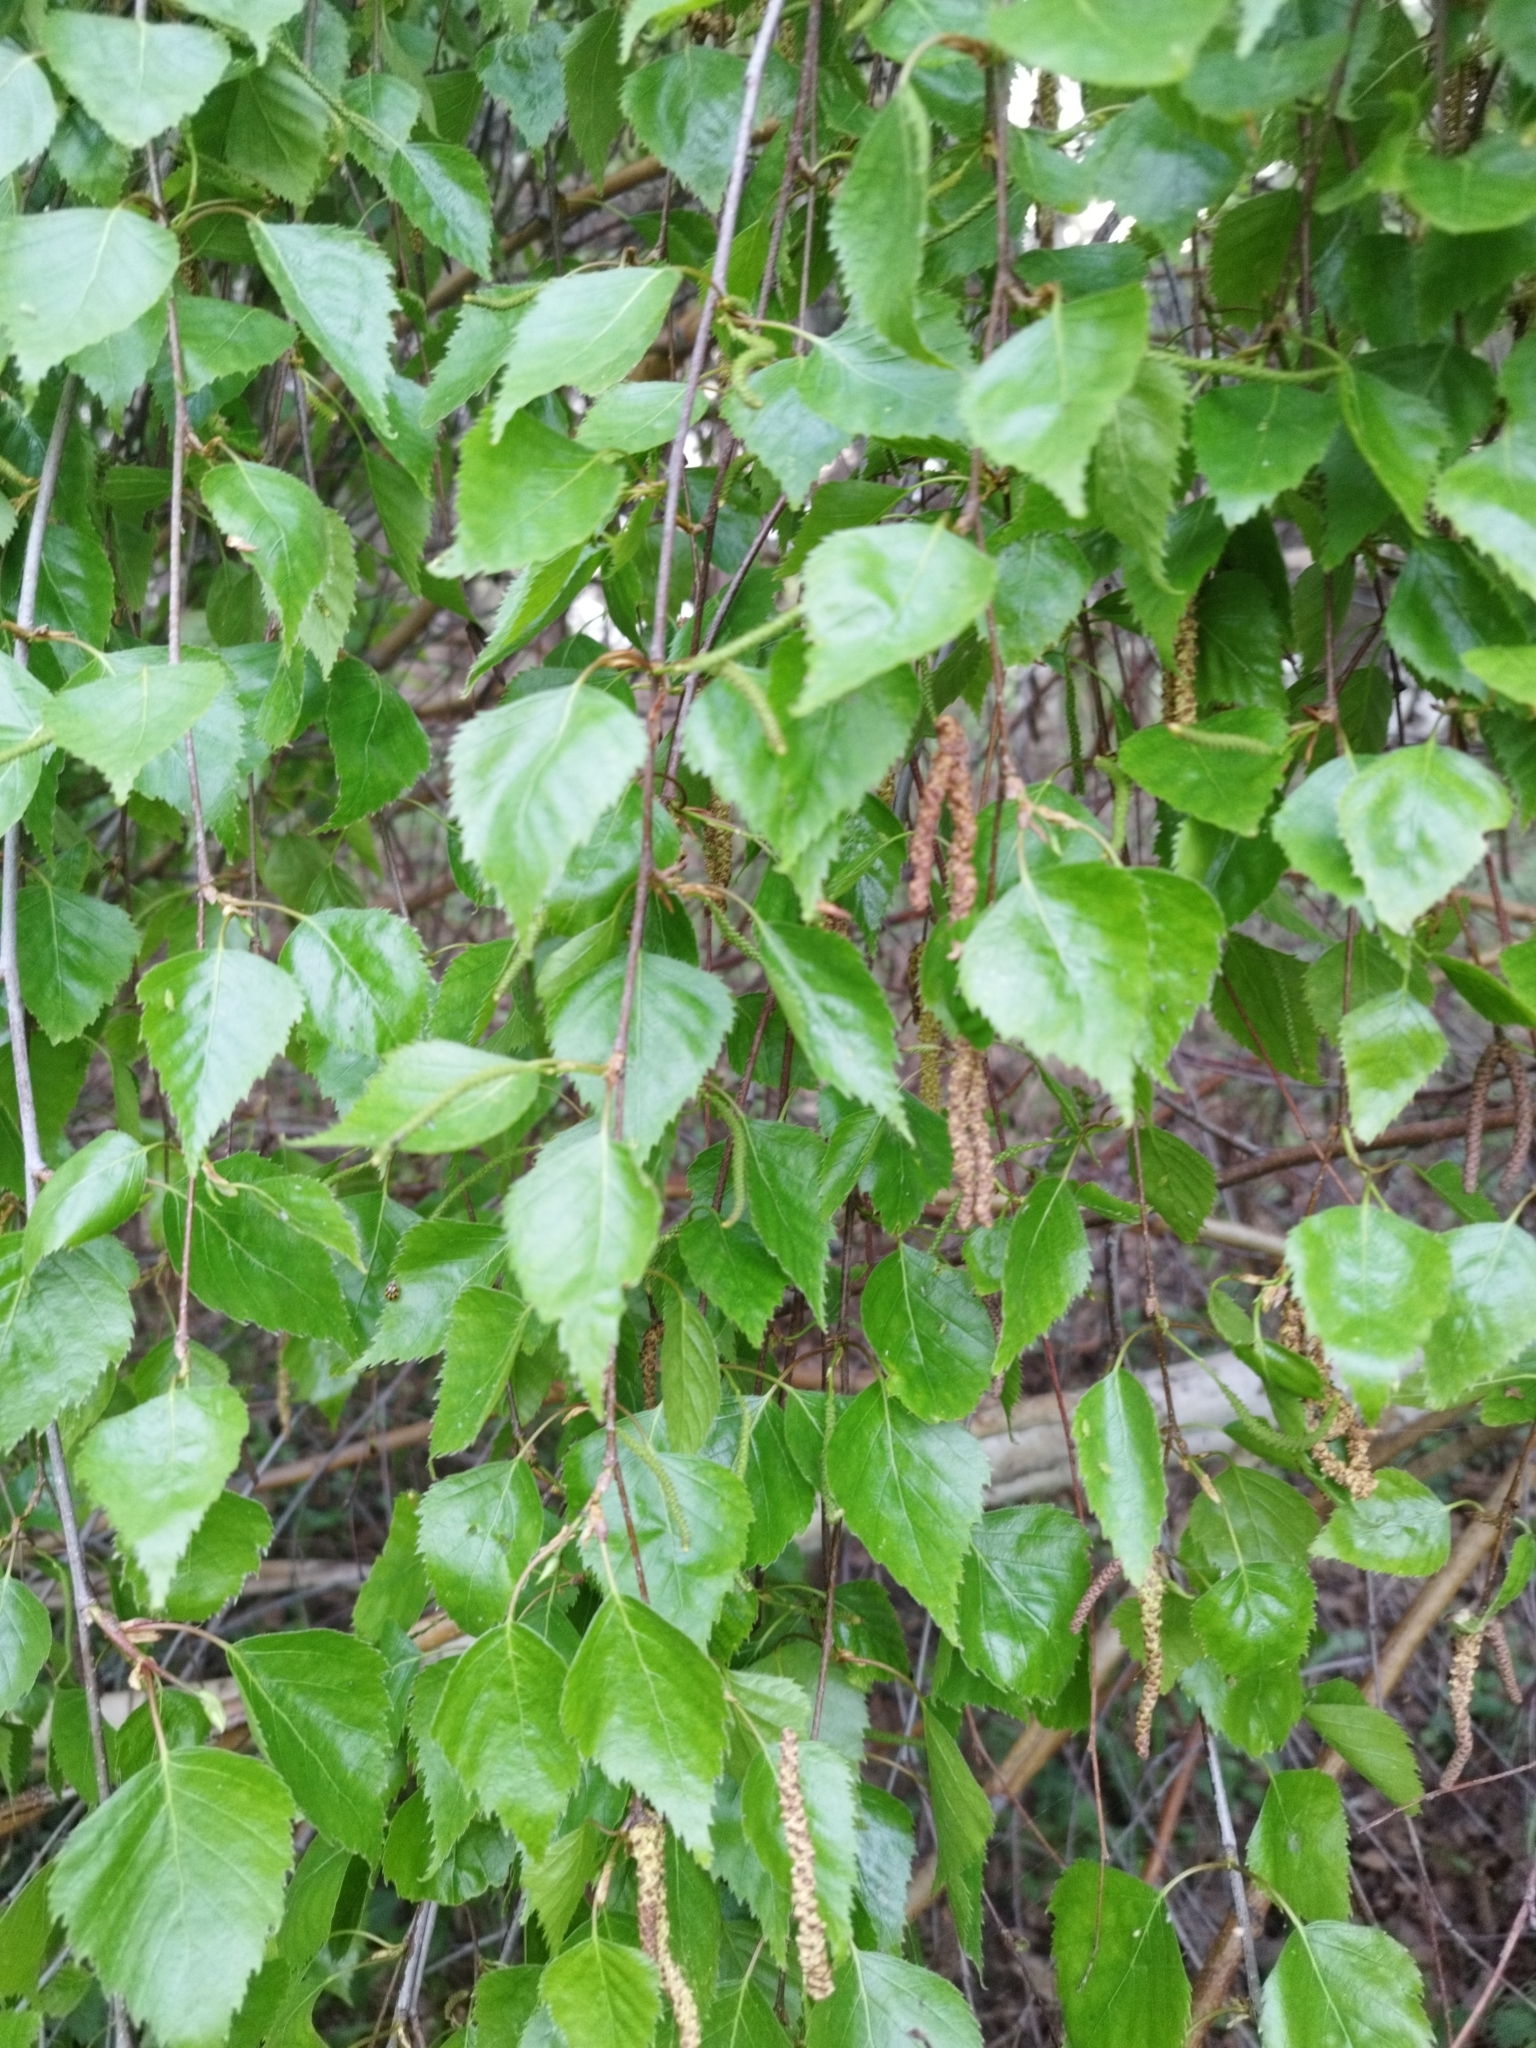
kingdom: Plantae
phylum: Tracheophyta
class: Magnoliopsida
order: Fagales
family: Betulaceae
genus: Betula
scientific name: Betula pendula
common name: Silver birch
